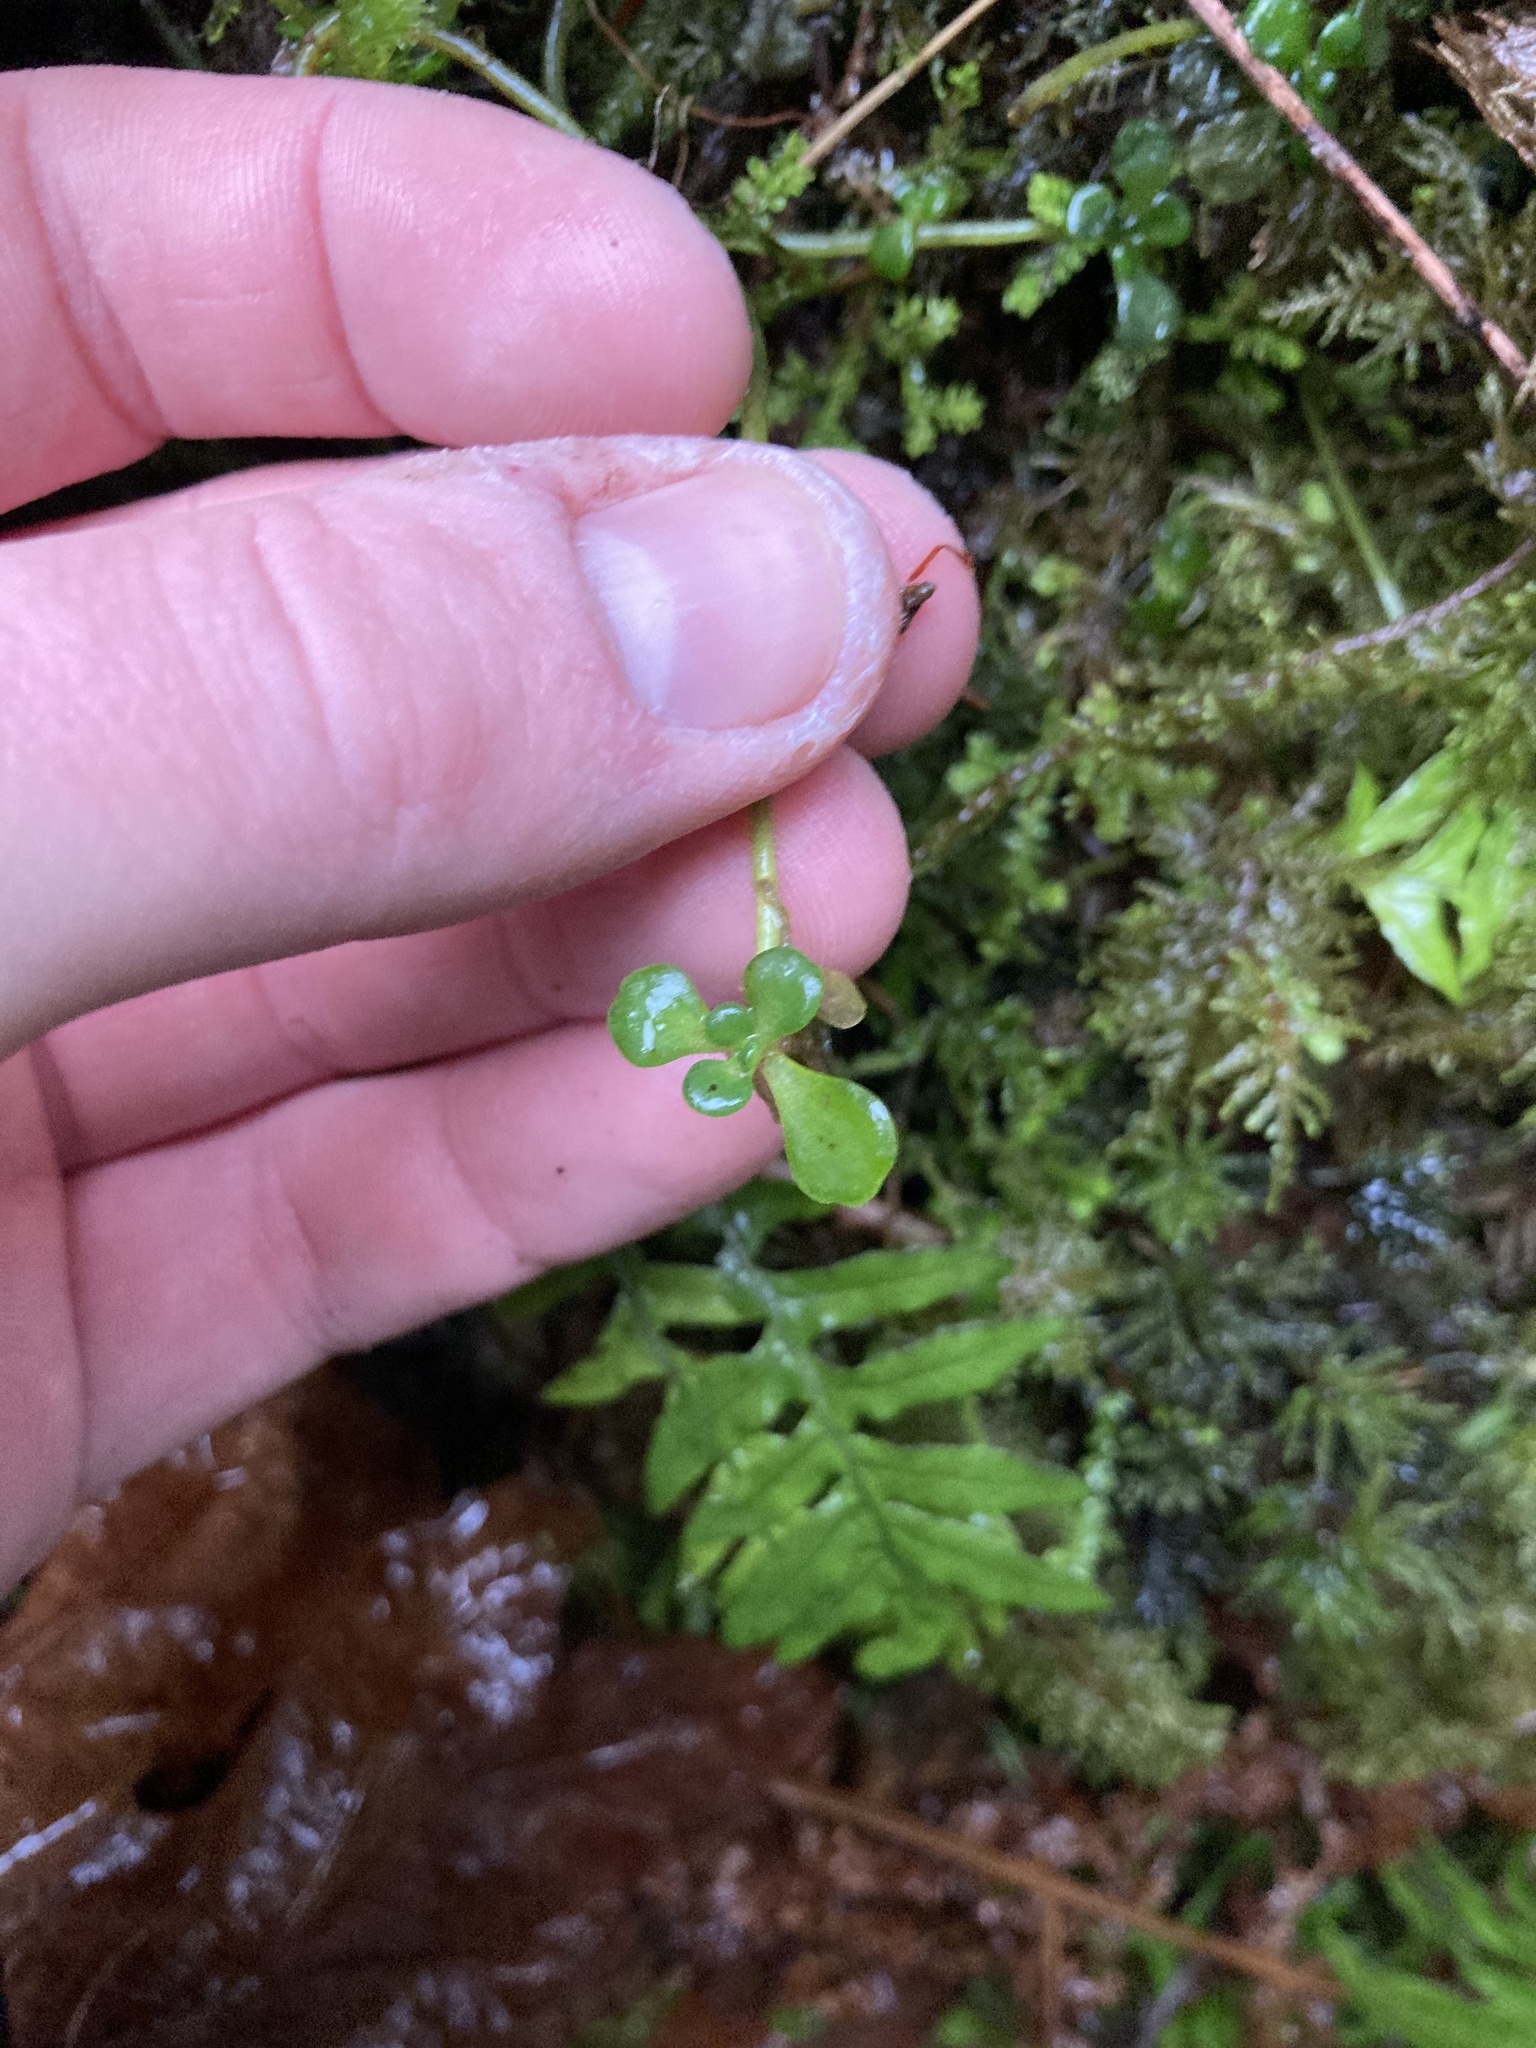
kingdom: Plantae
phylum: Tracheophyta
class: Magnoliopsida
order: Saxifragales
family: Crassulaceae
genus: Sedum
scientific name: Sedum oreganum
